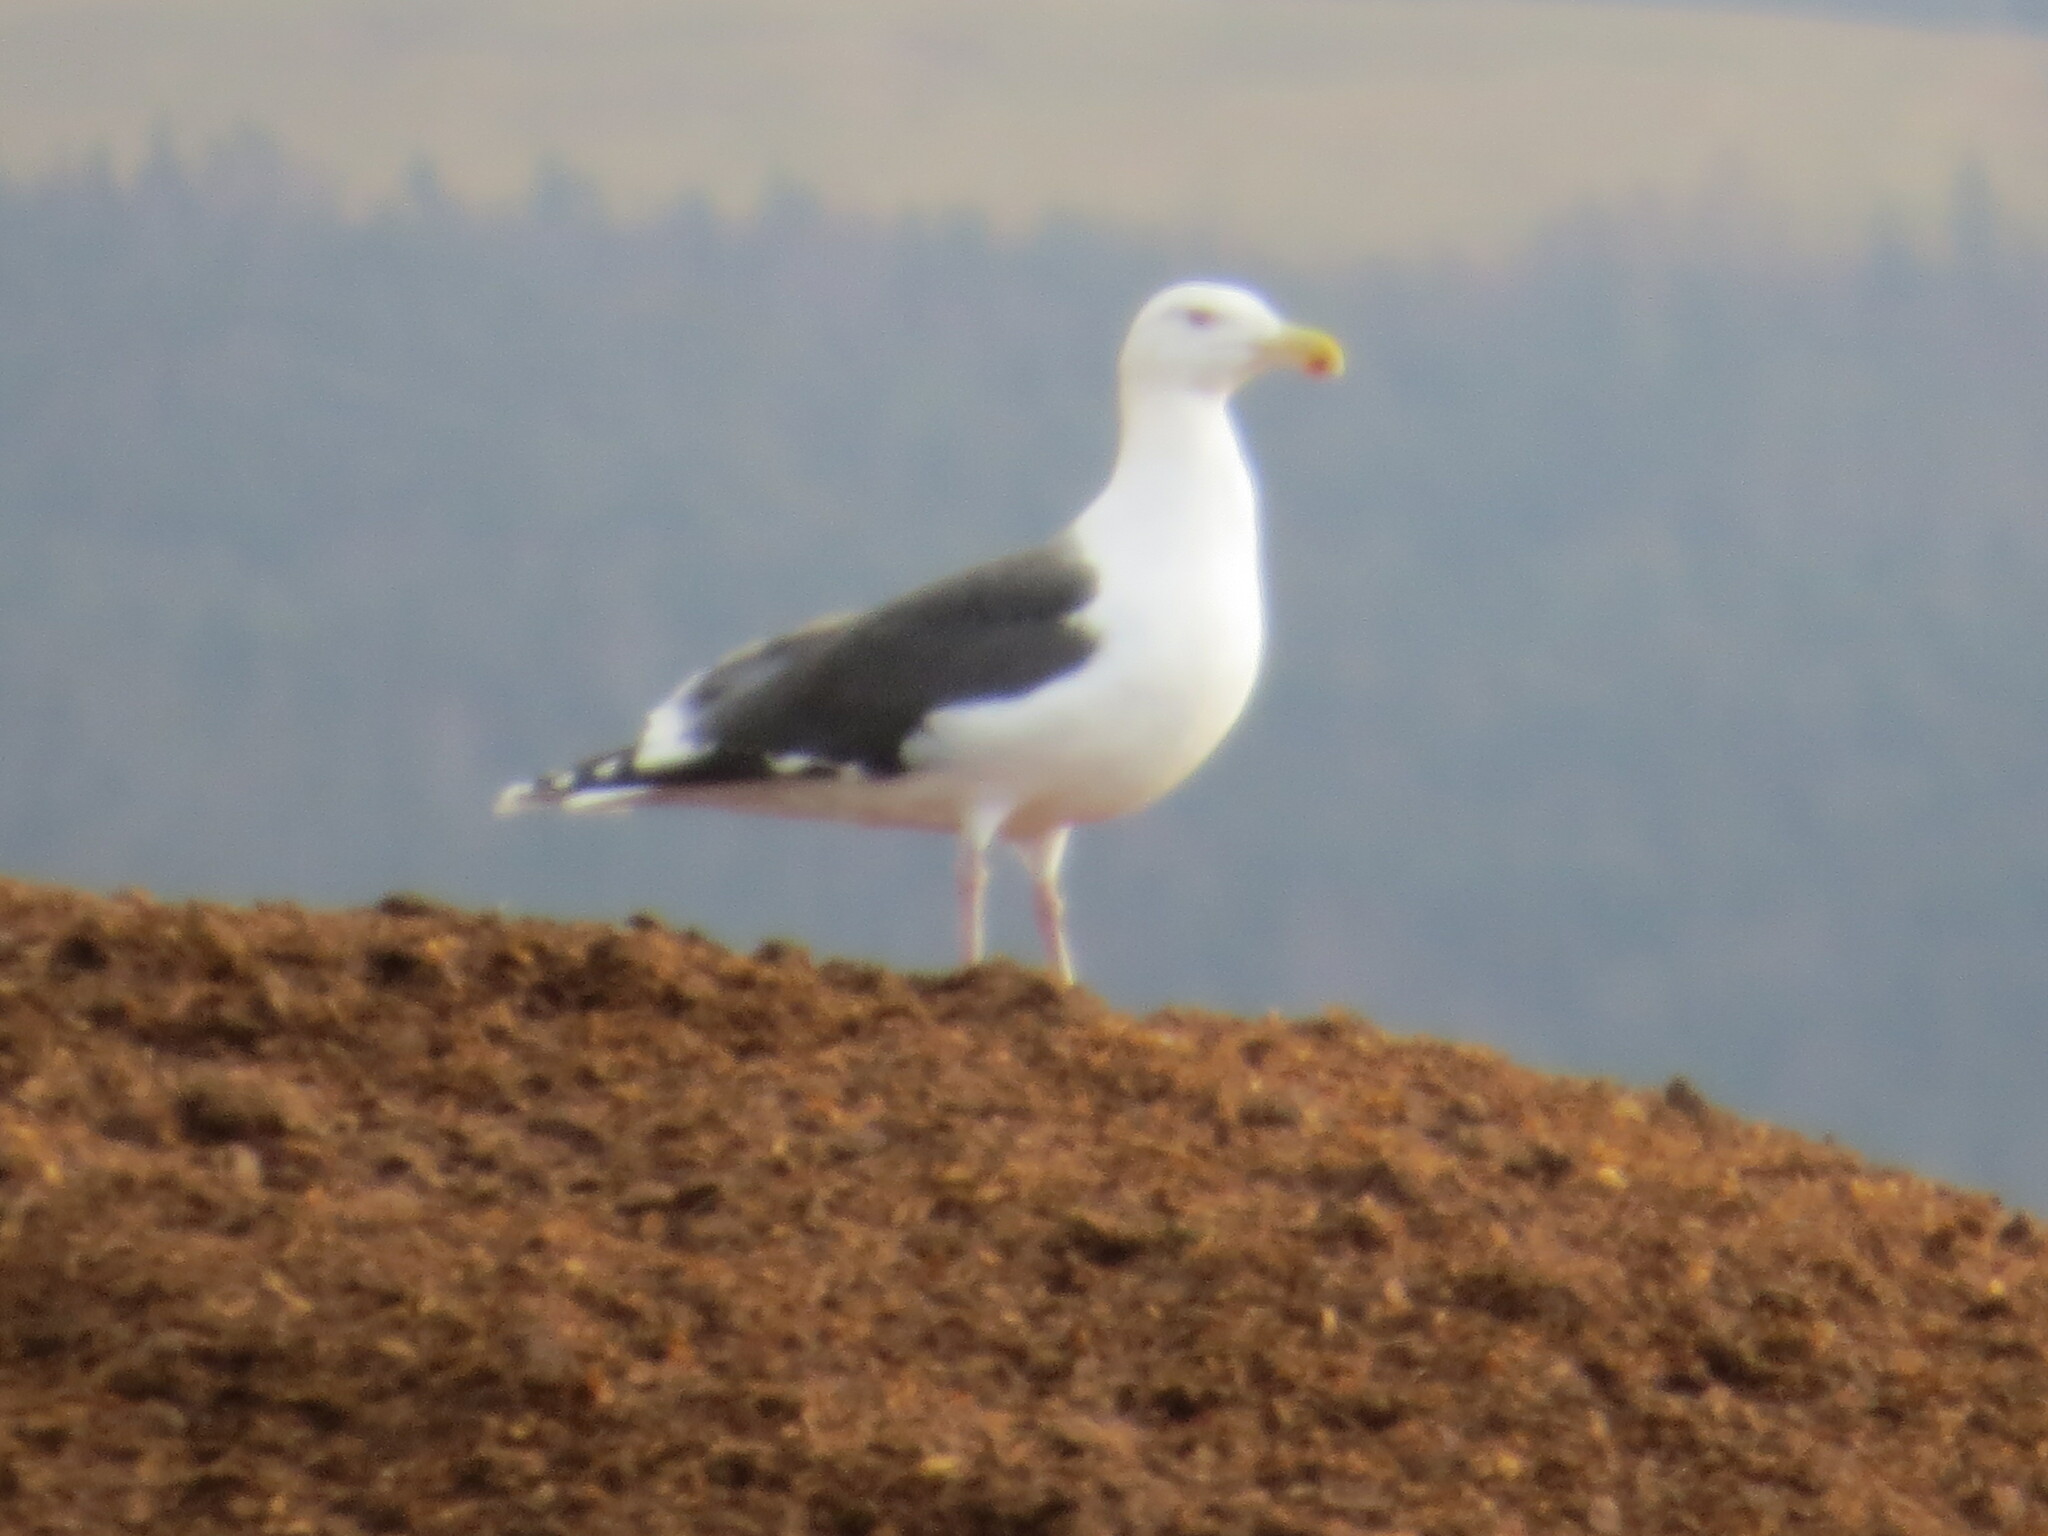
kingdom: Animalia
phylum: Chordata
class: Aves
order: Charadriiformes
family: Laridae
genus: Larus
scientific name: Larus marinus
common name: Great black-backed gull
